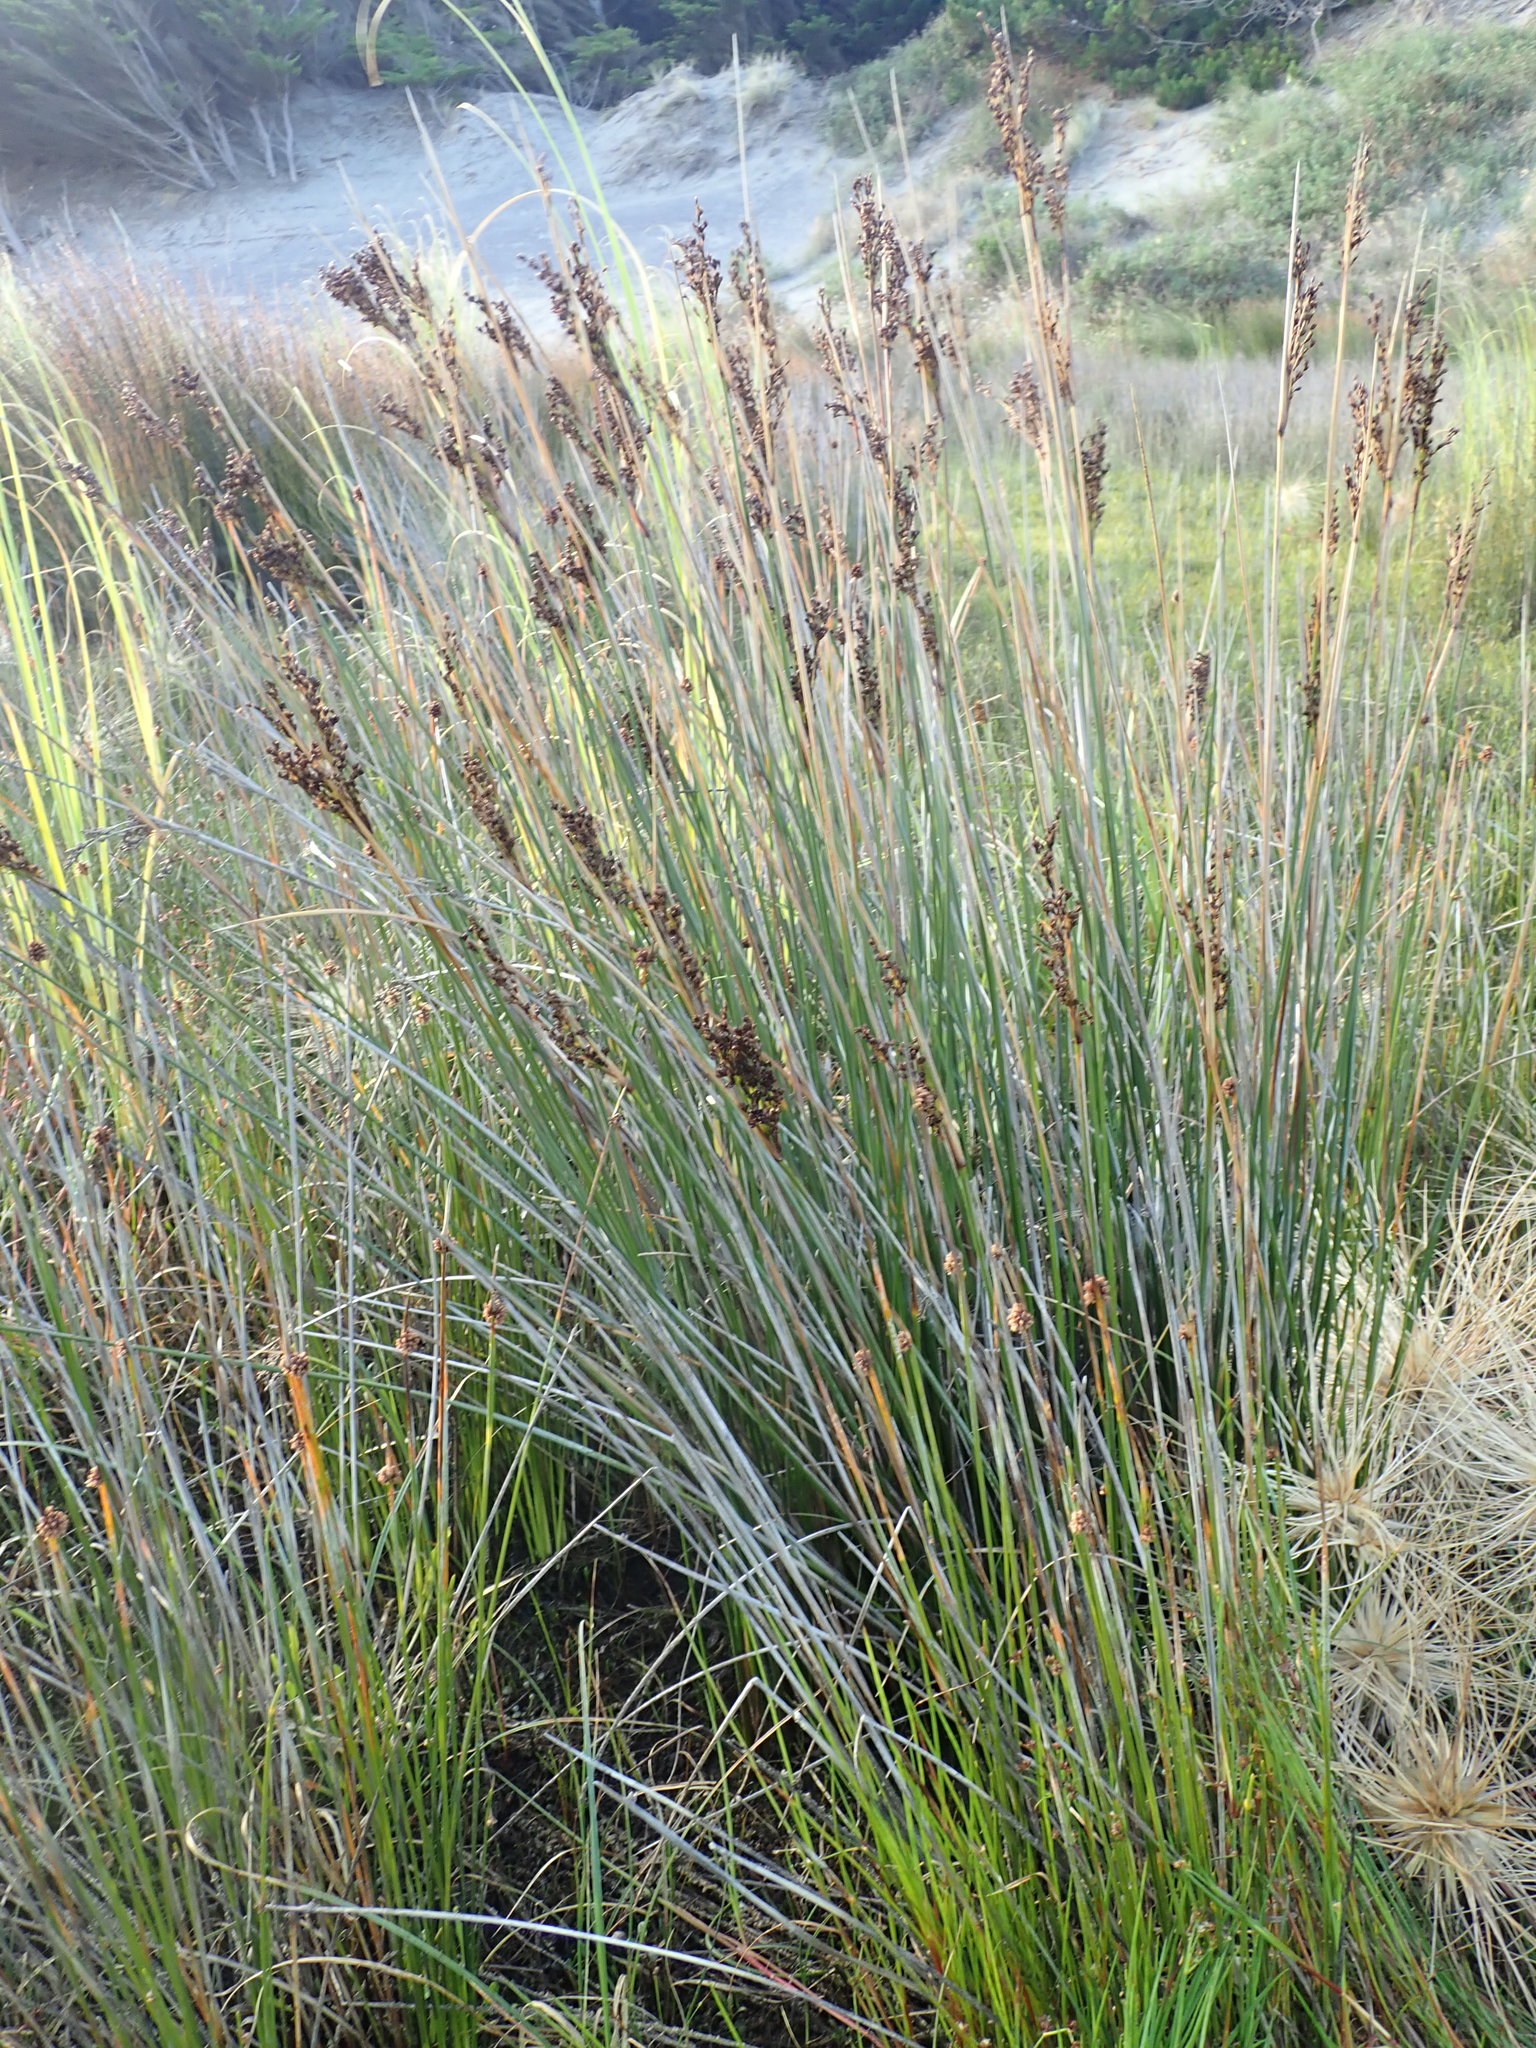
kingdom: Plantae
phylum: Tracheophyta
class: Liliopsida
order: Poales
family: Juncaceae
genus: Juncus
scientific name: Juncus kraussii
